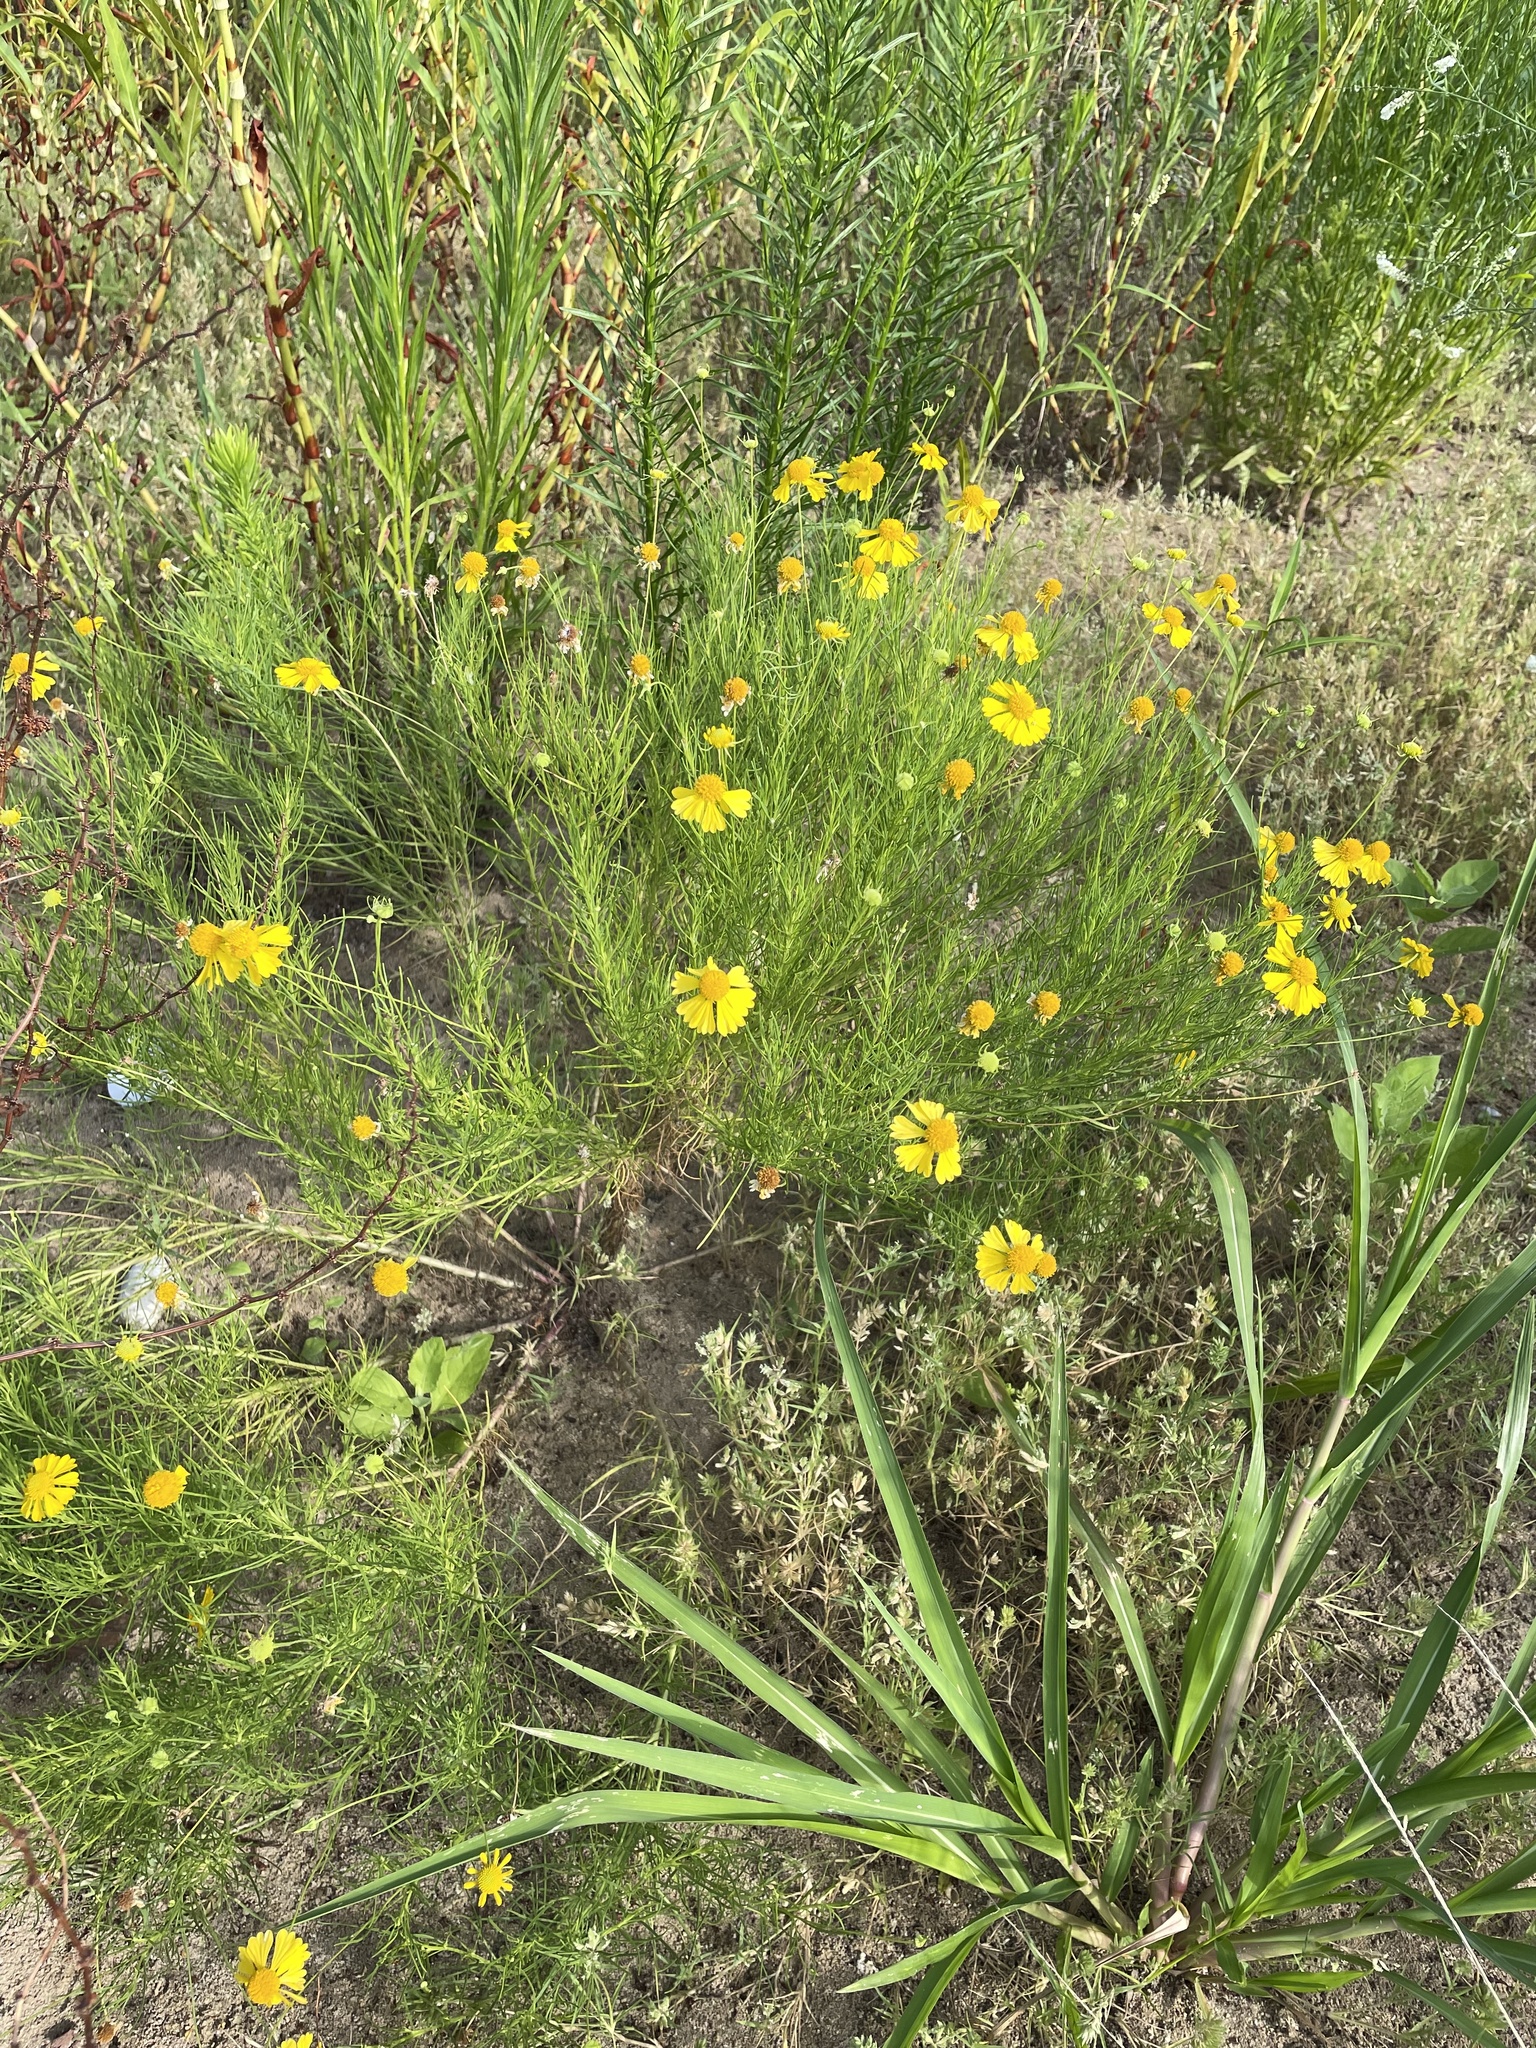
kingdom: Plantae
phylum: Tracheophyta
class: Magnoliopsida
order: Asterales
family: Asteraceae
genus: Helenium
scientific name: Helenium amarum
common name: Bitter sneezeweed
